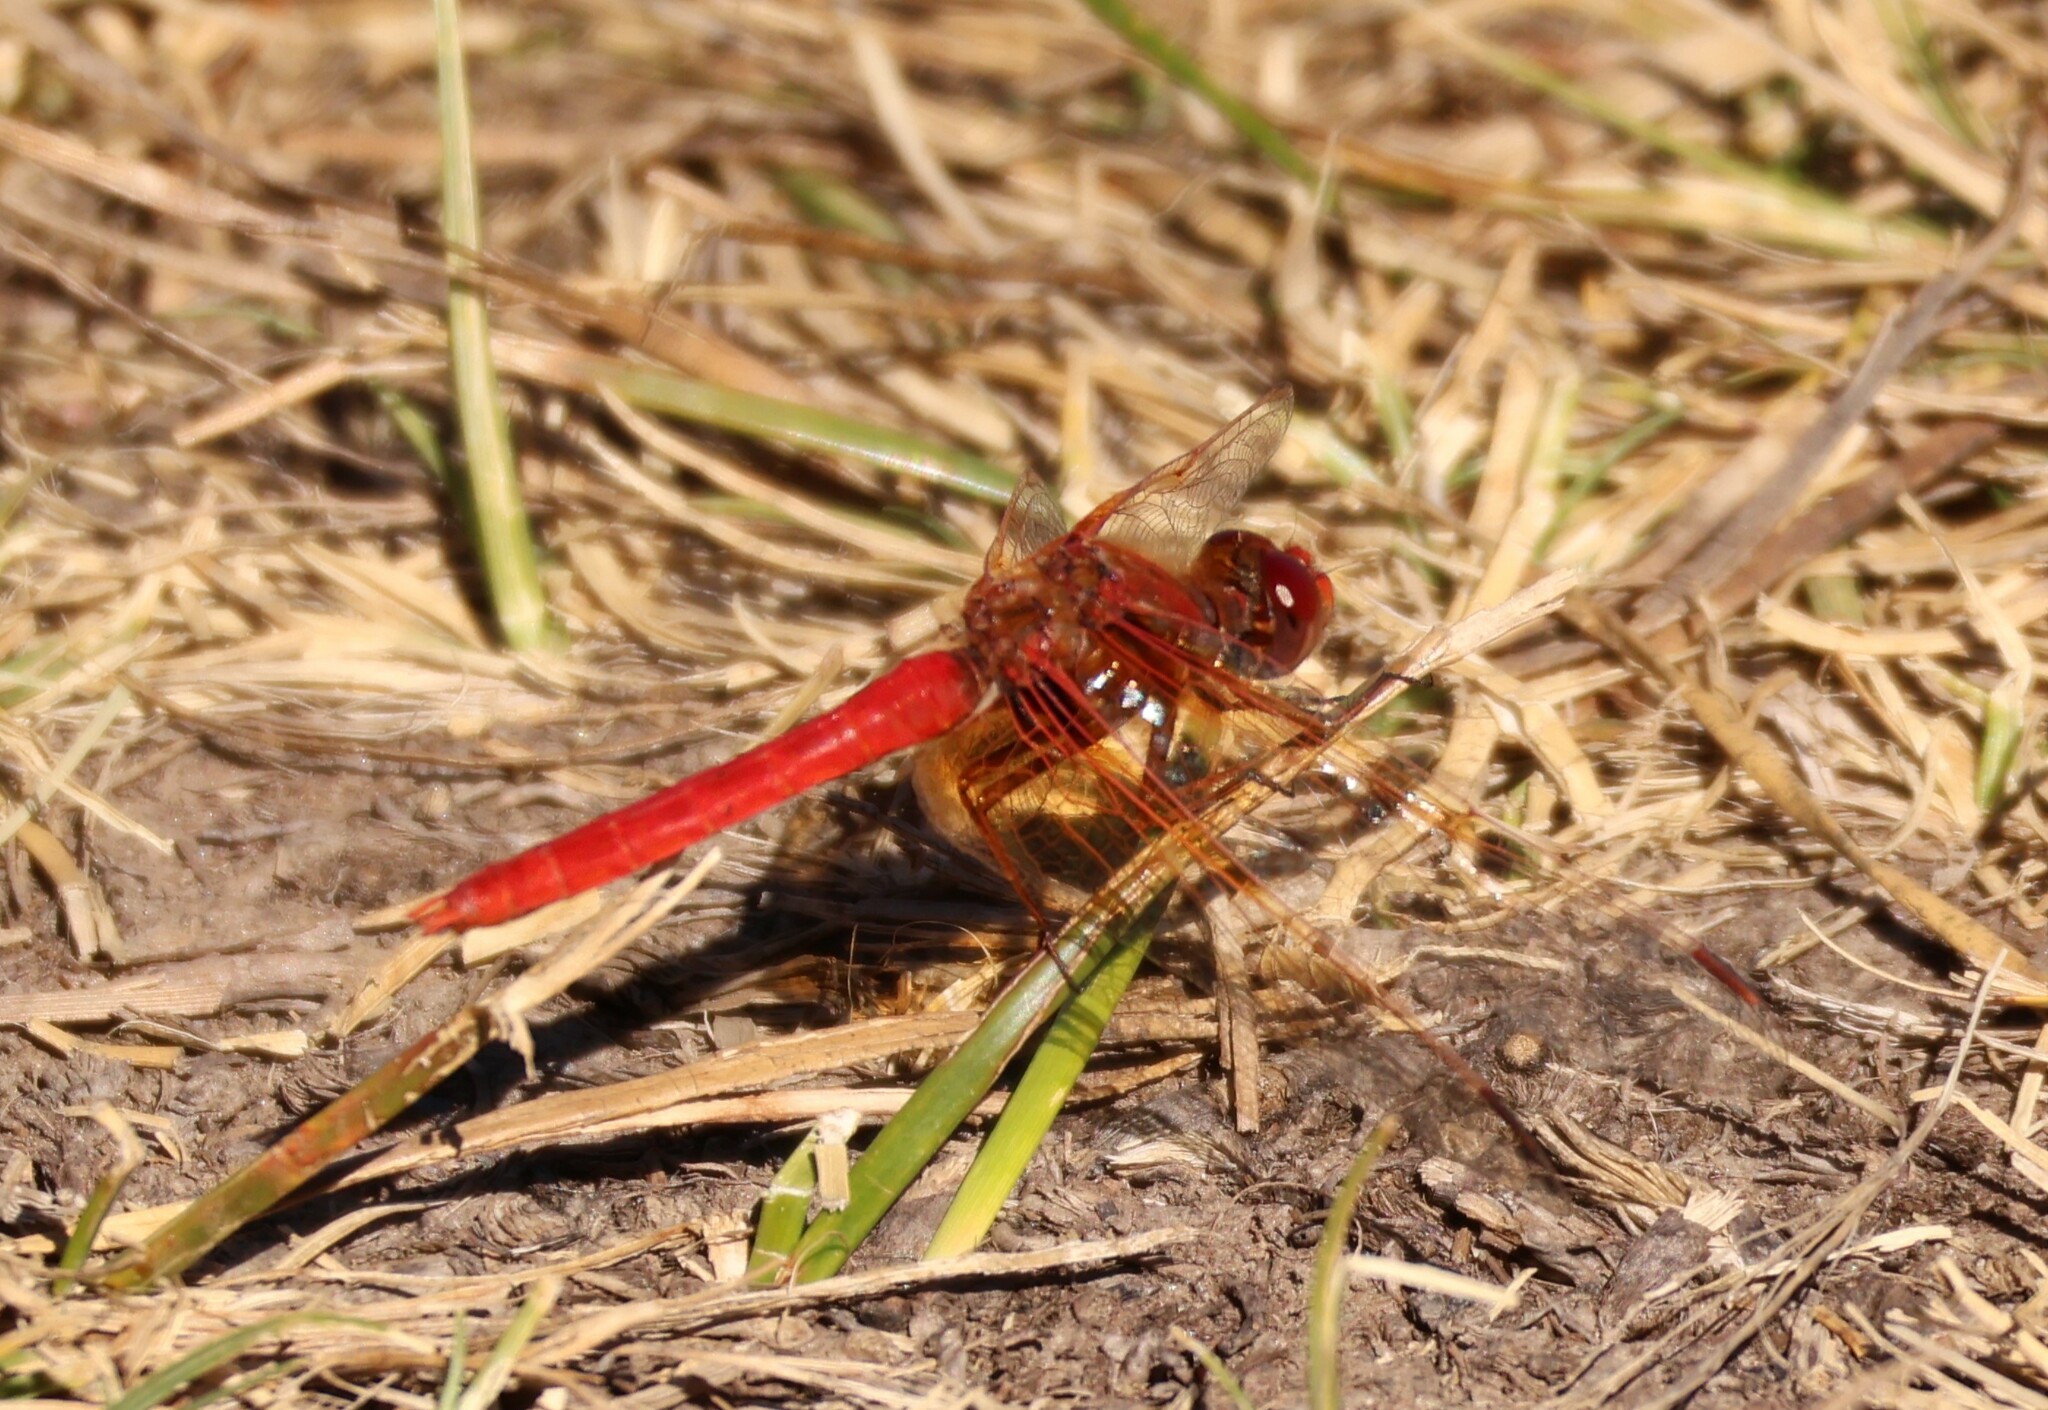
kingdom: Animalia
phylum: Arthropoda
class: Insecta
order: Odonata
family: Libellulidae
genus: Sympetrum
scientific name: Sympetrum illotum
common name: Cardinal meadowhawk
